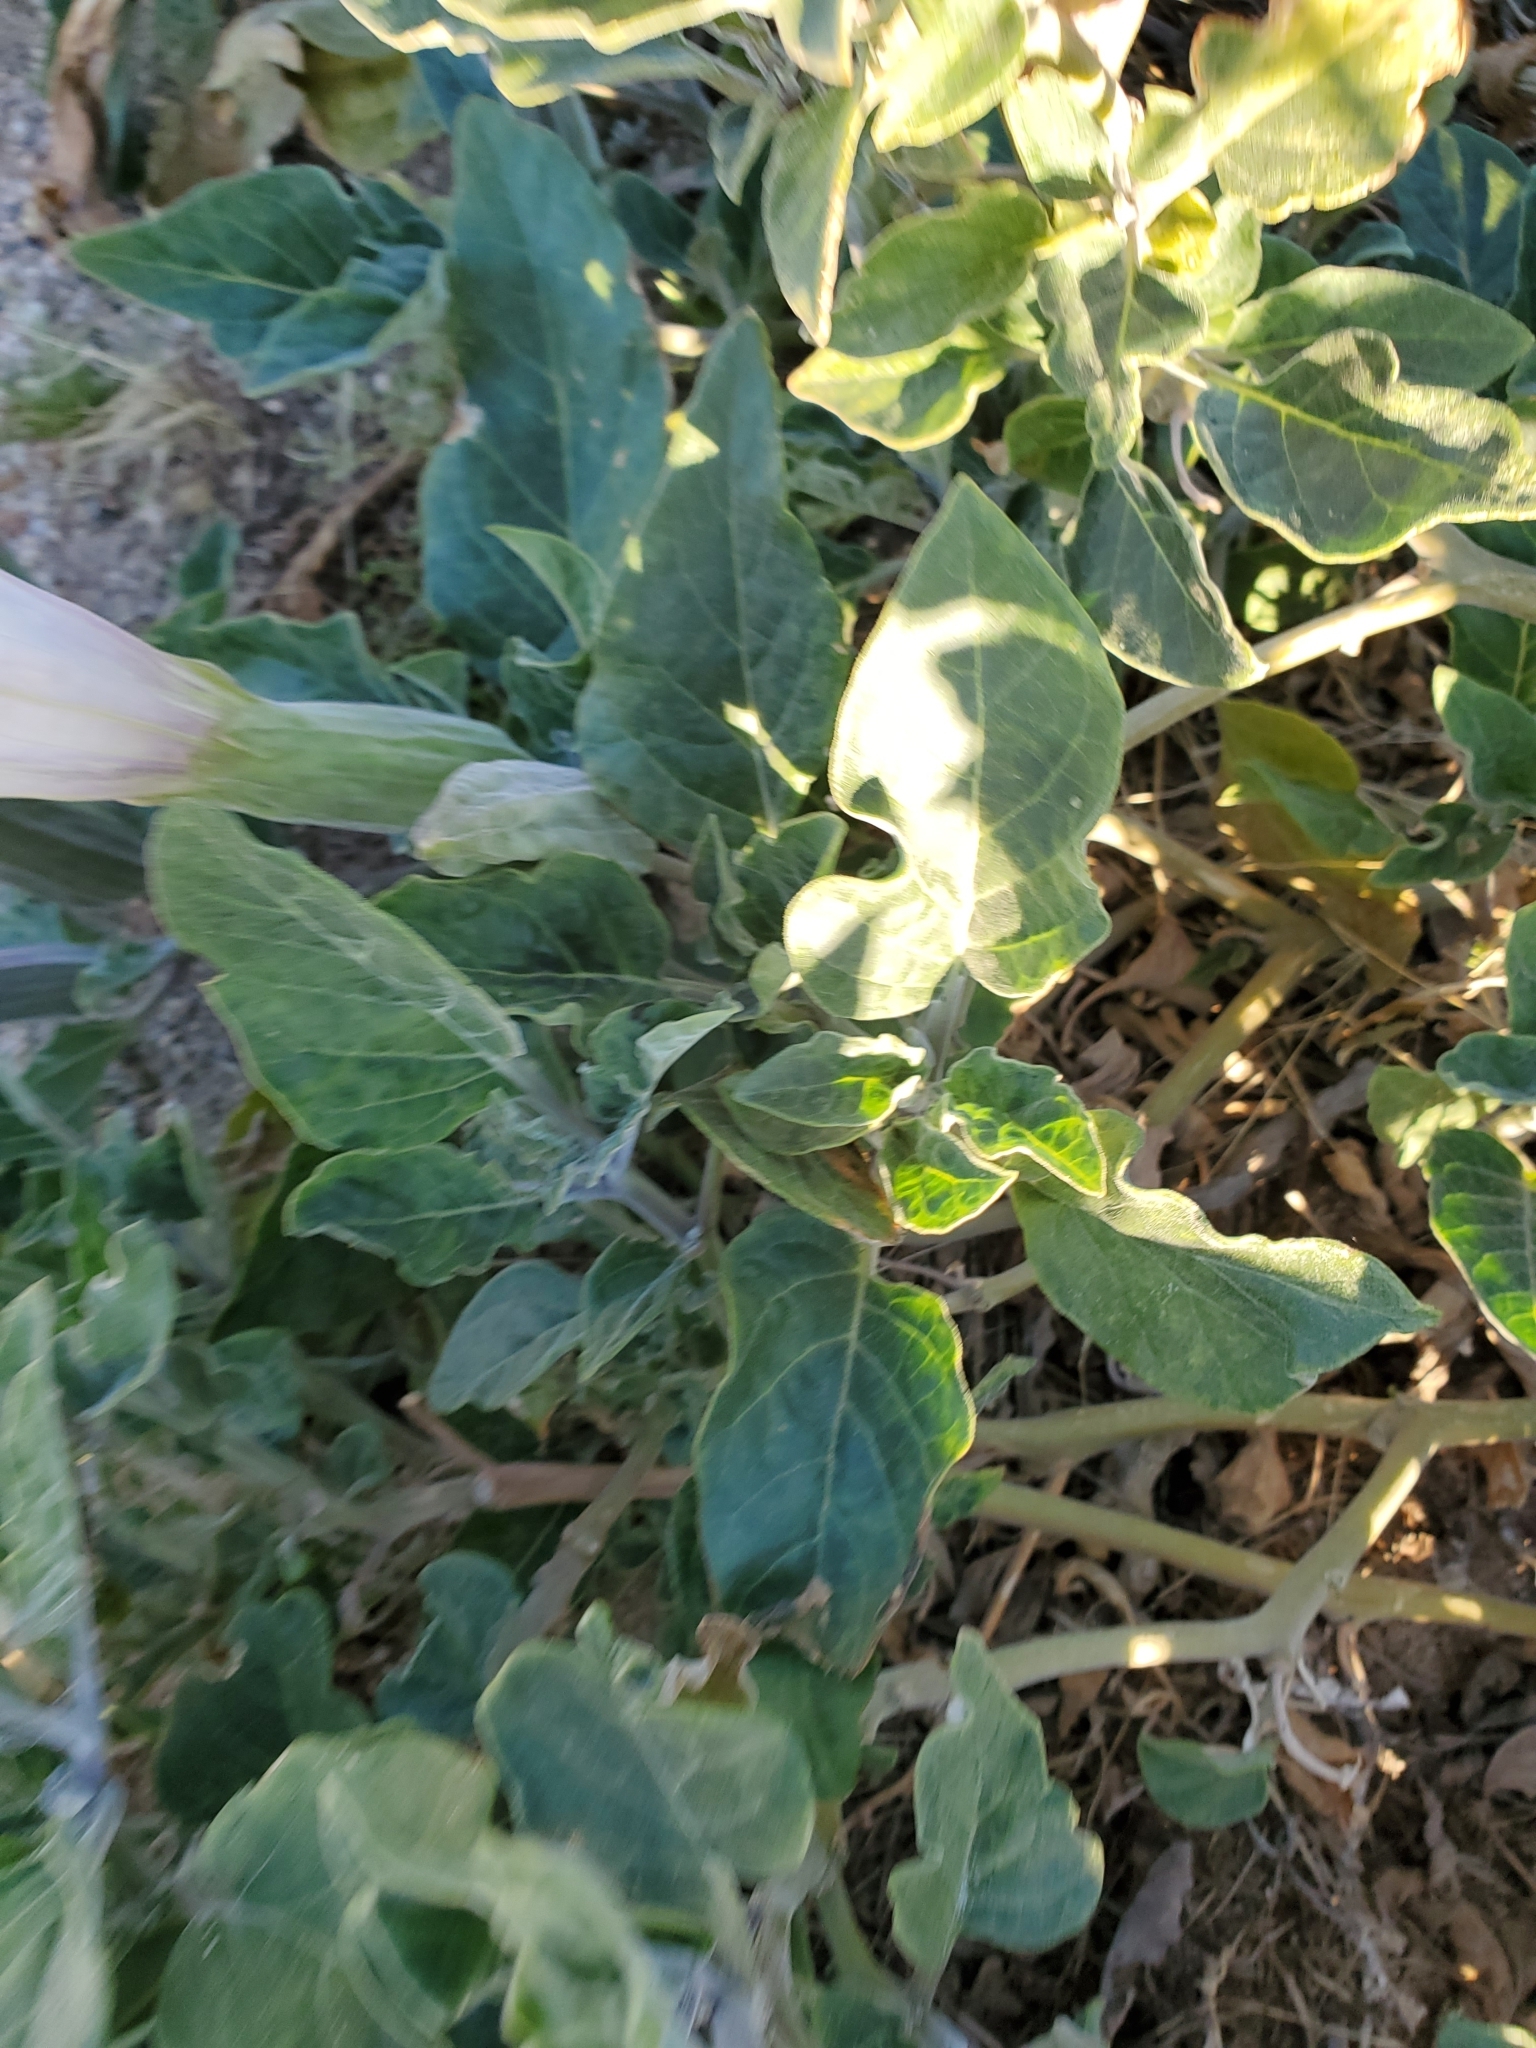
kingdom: Plantae
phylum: Tracheophyta
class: Magnoliopsida
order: Solanales
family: Solanaceae
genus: Datura
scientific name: Datura wrightii
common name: Sacred thorn-apple
